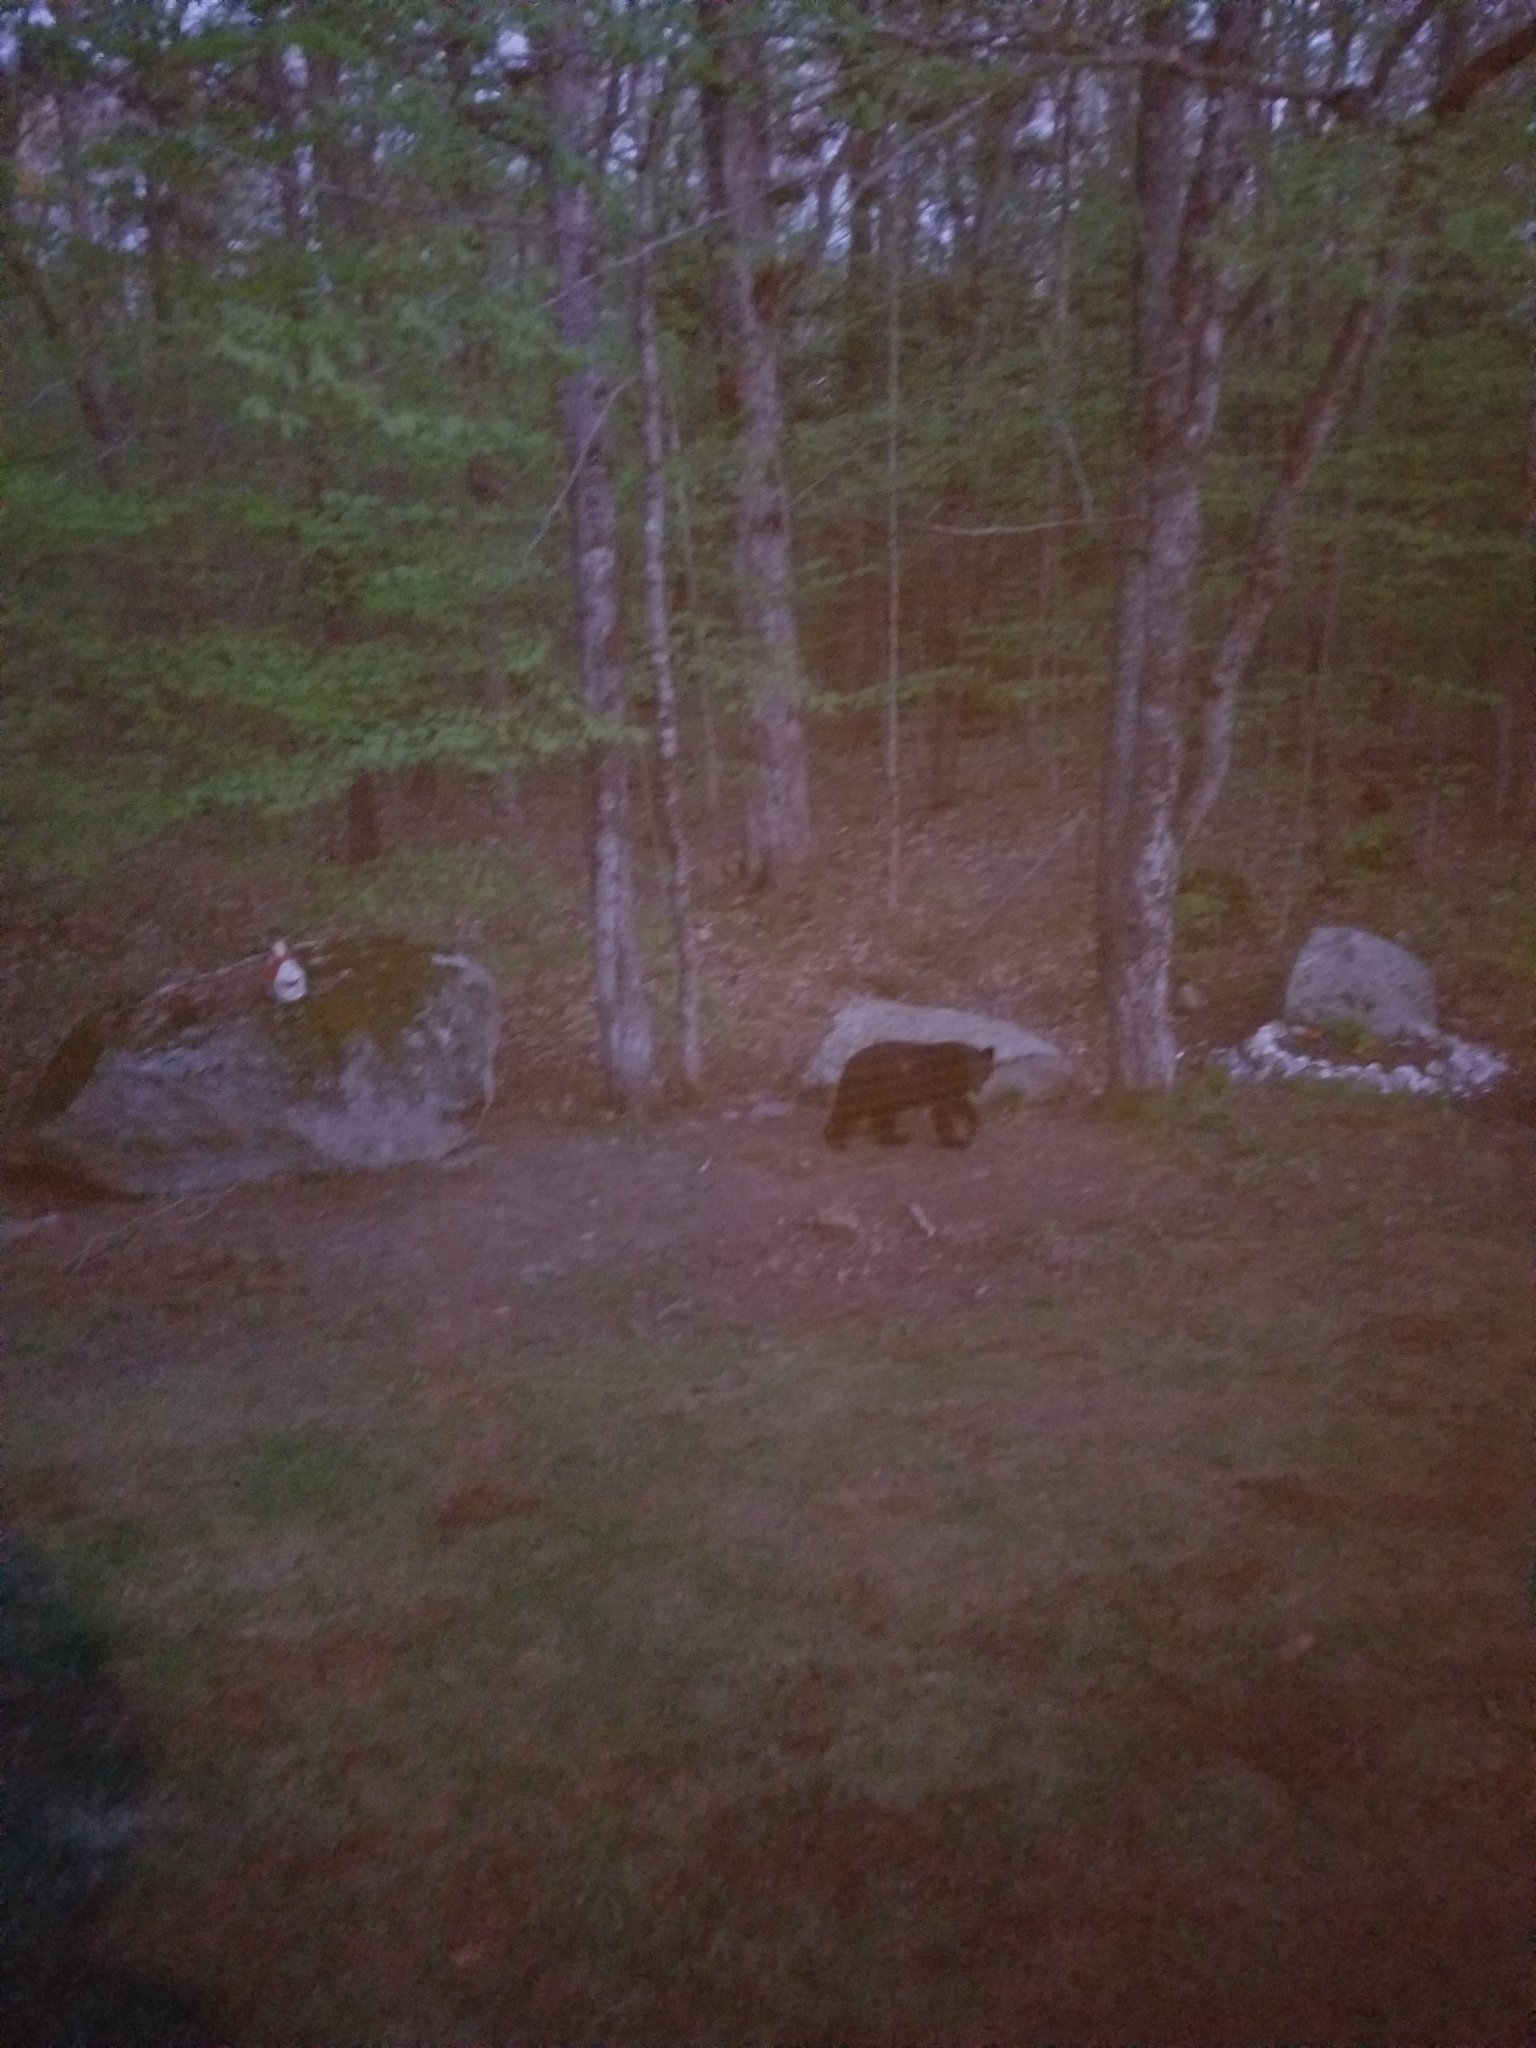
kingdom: Animalia
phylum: Chordata
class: Mammalia
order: Carnivora
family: Ursidae
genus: Ursus
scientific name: Ursus americanus
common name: American black bear
